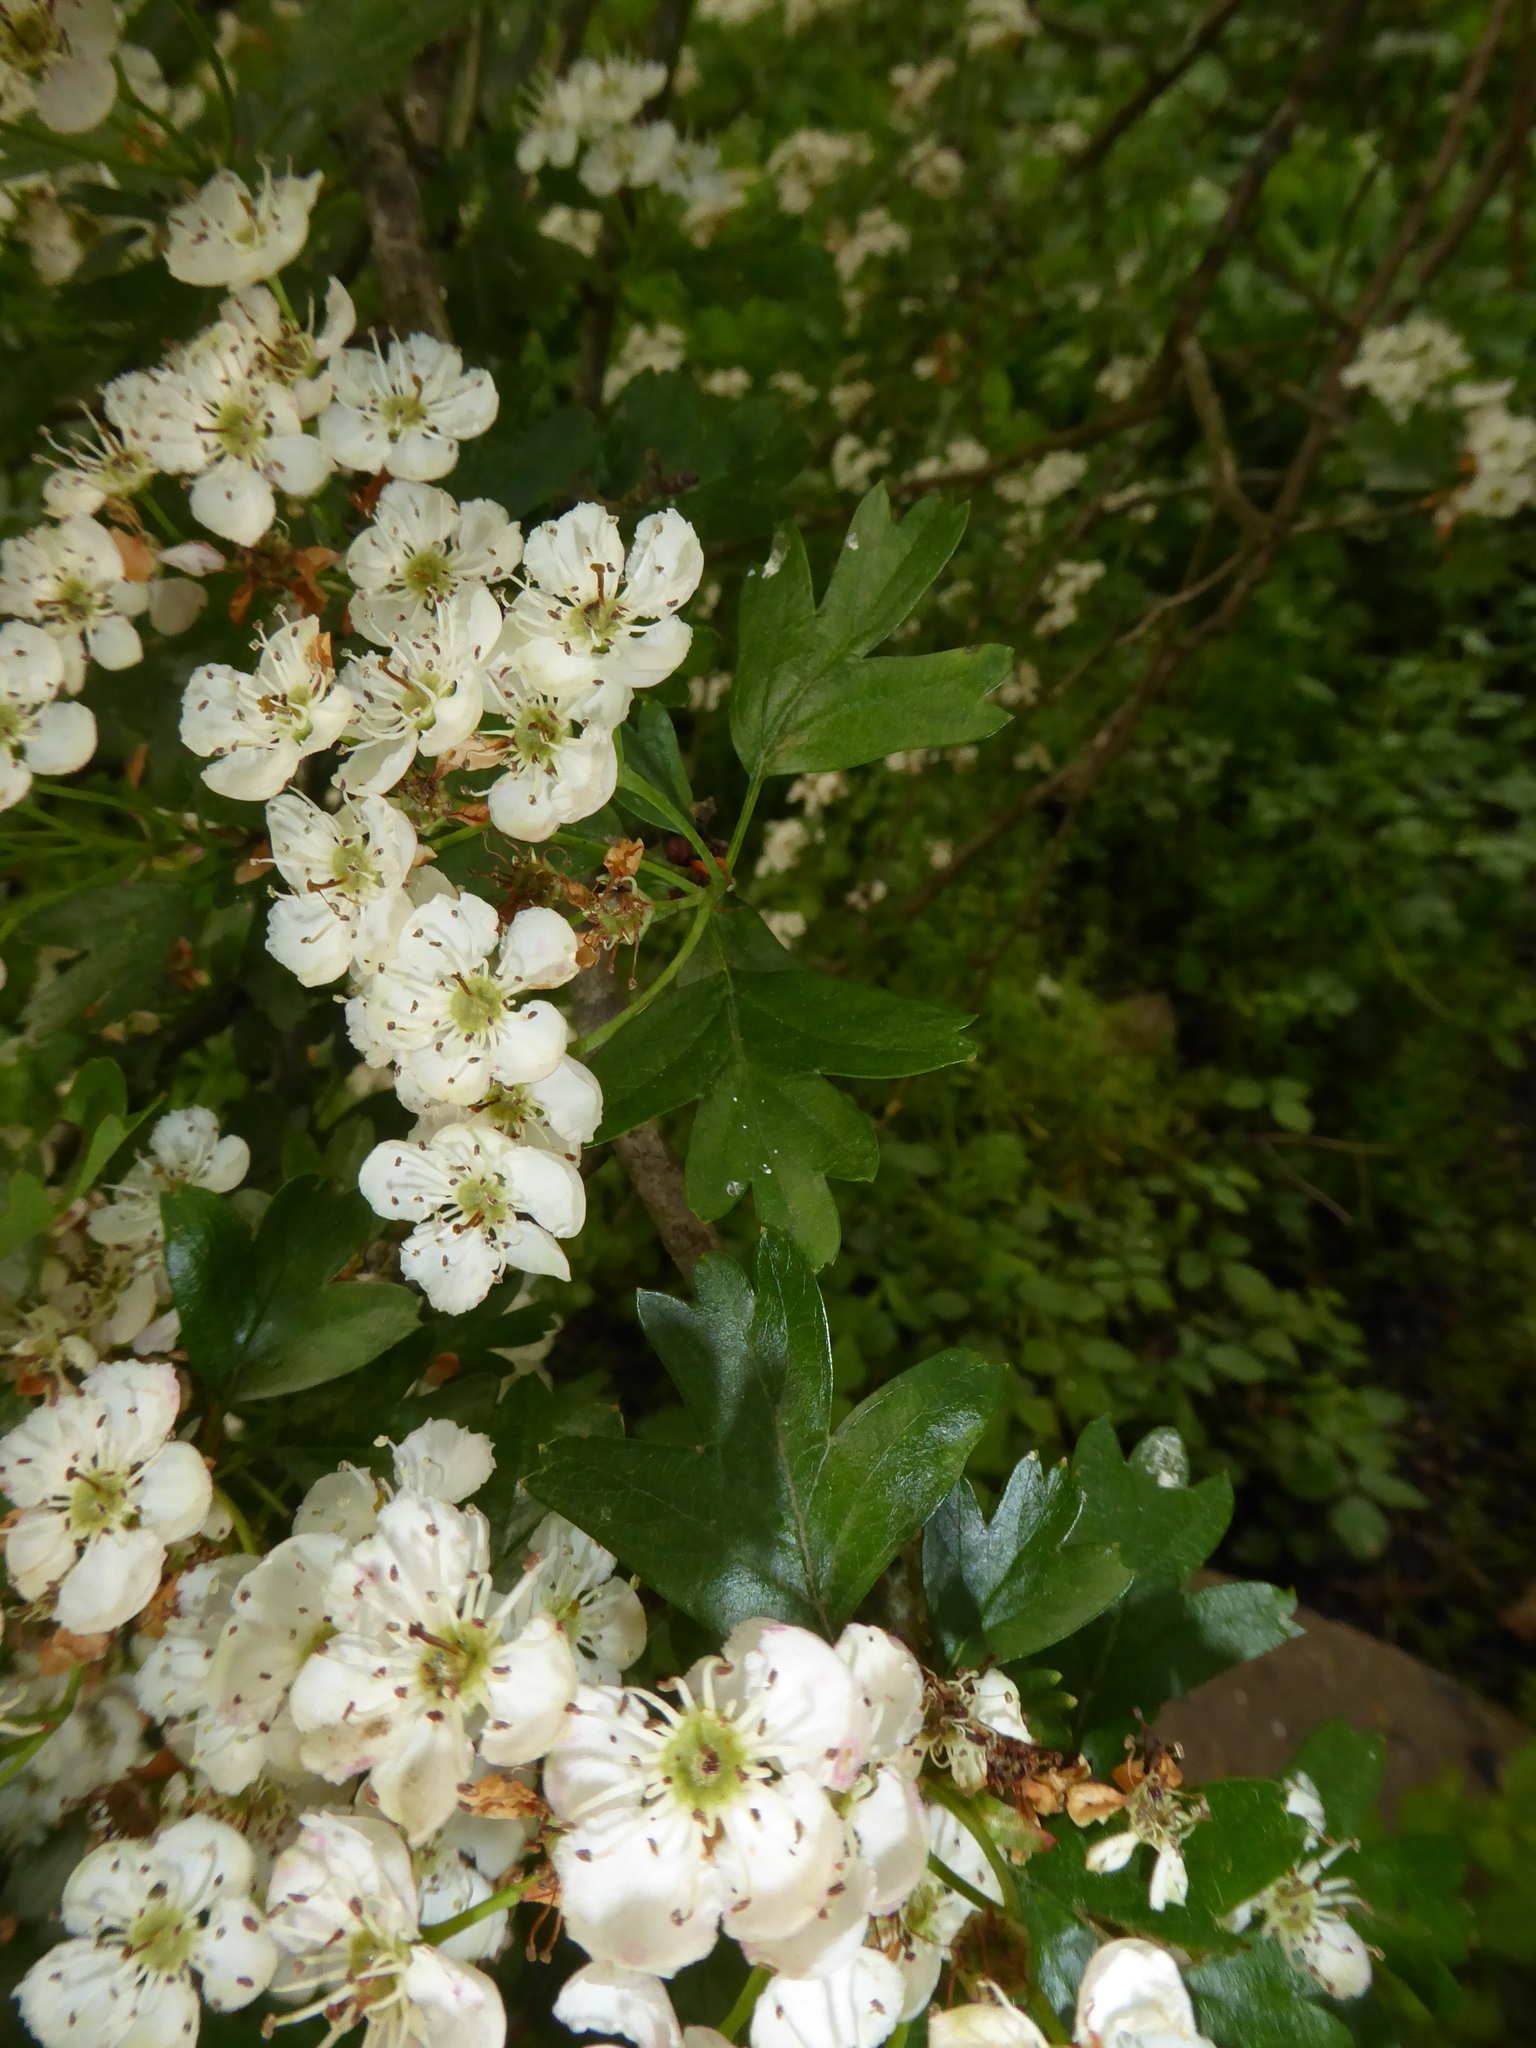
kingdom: Plantae
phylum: Tracheophyta
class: Magnoliopsida
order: Rosales
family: Rosaceae
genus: Crataegus
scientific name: Crataegus monogyna
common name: Hawthorn
